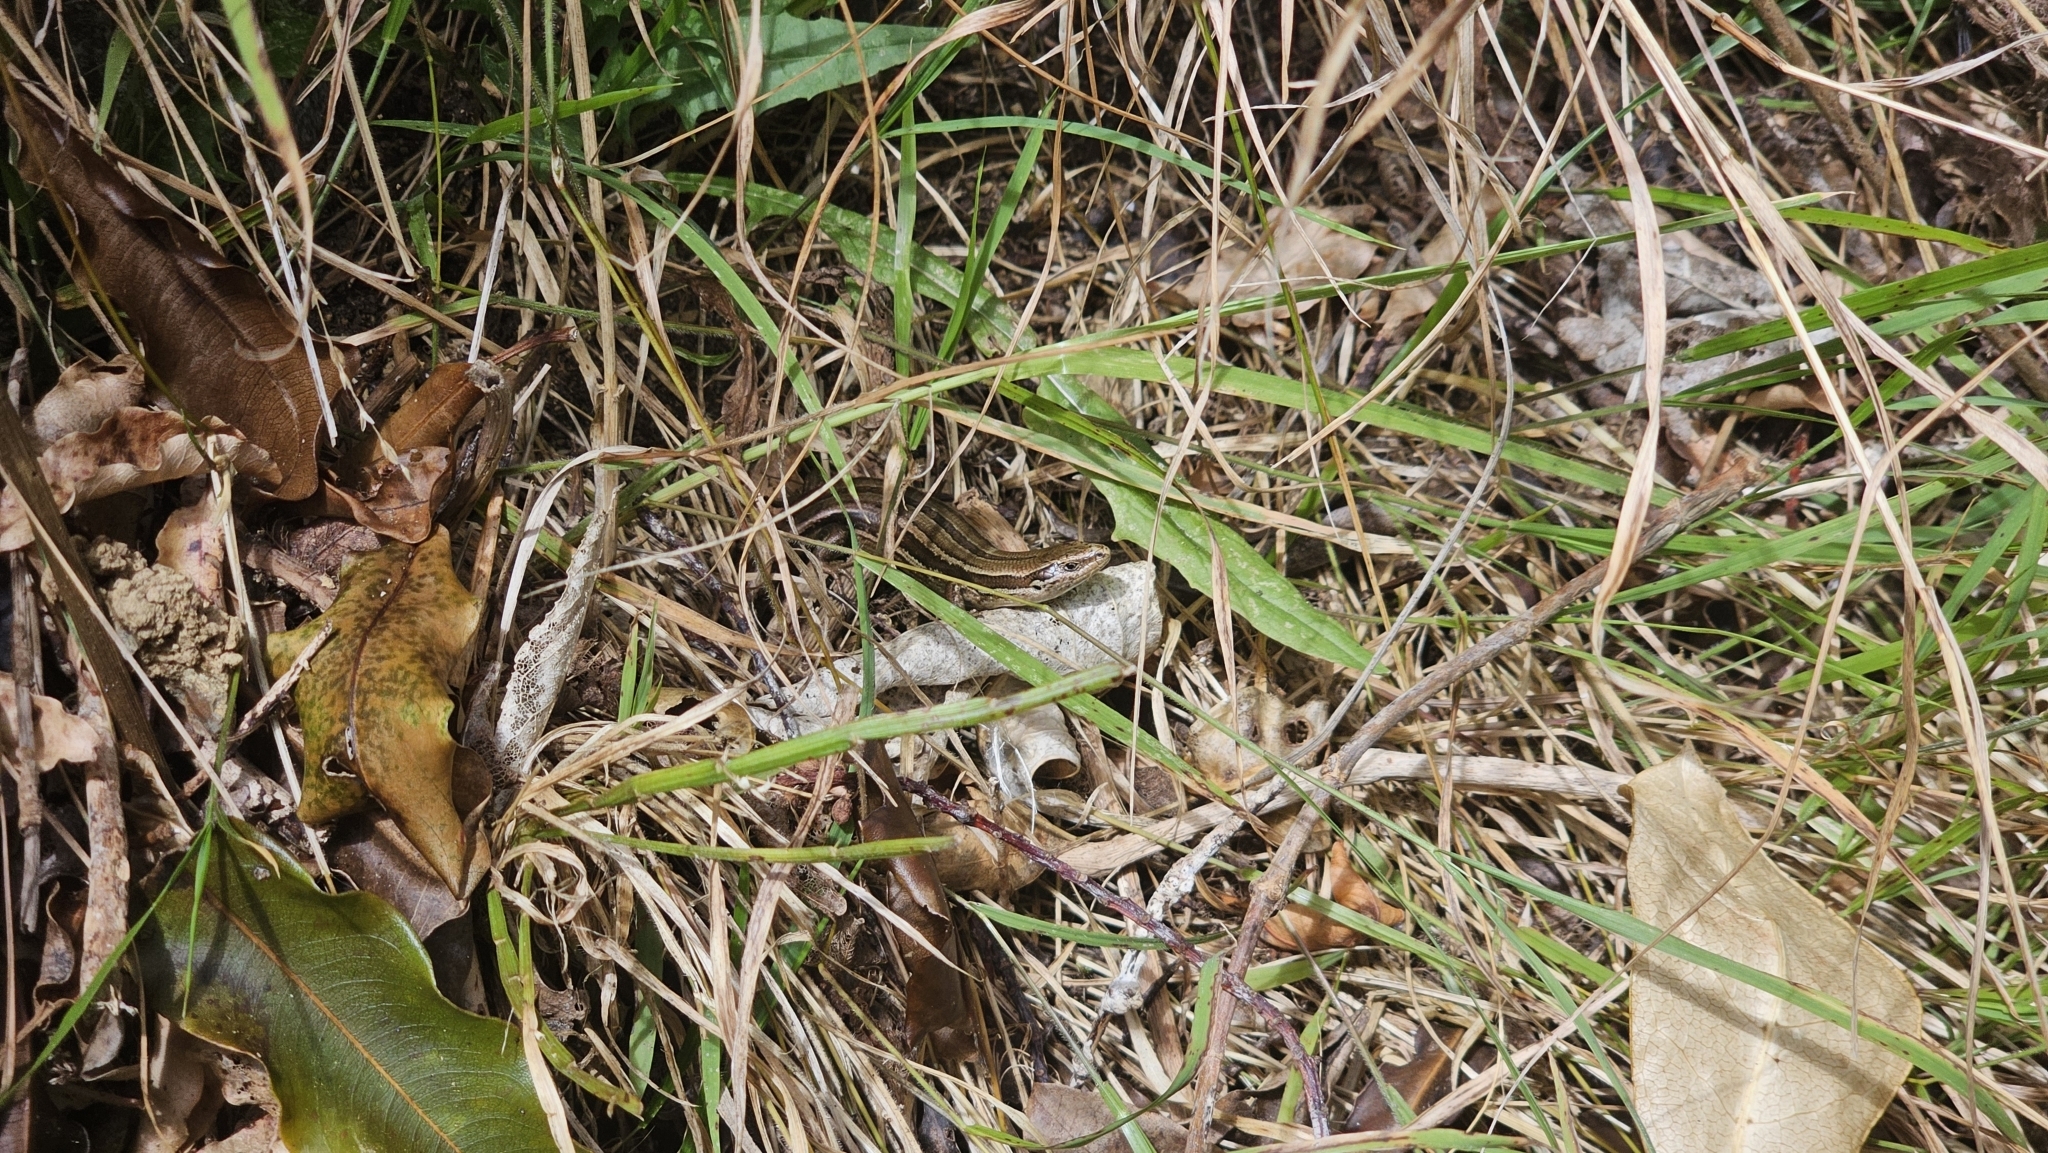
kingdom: Animalia
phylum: Chordata
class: Squamata
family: Scincidae
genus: Oligosoma
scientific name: Oligosoma polychroma
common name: Common new zealand skink
